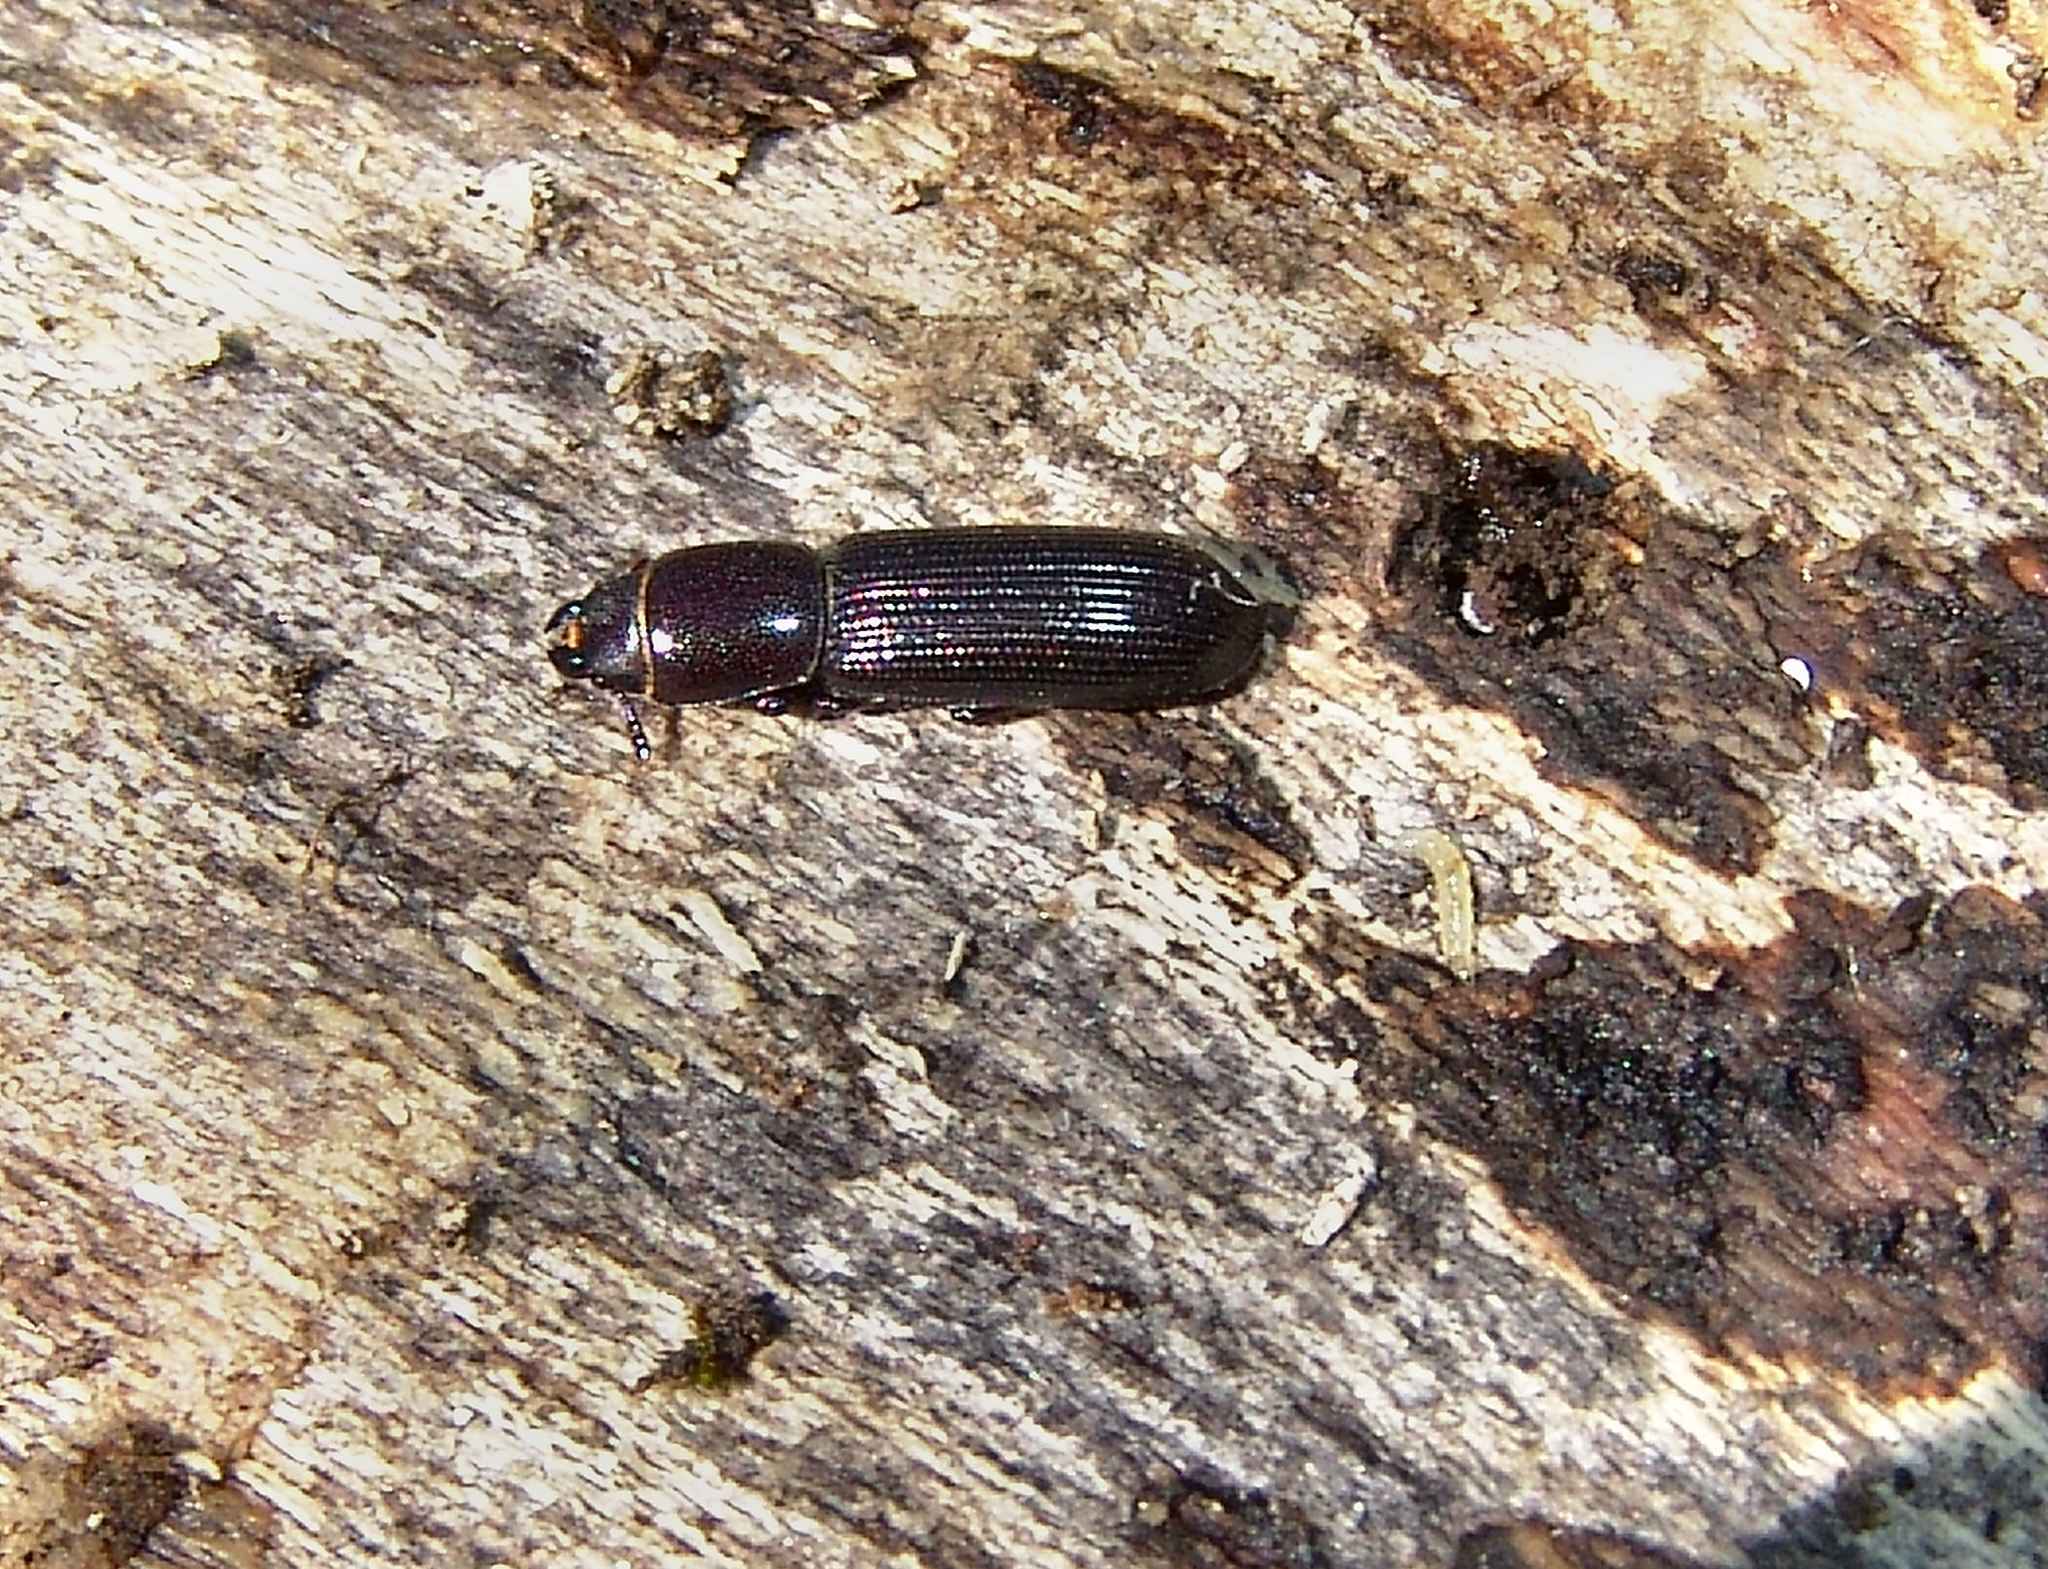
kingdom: Animalia
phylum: Arthropoda
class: Insecta
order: Coleoptera
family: Trogossitidae
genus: Airora
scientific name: Airora cylindrica
